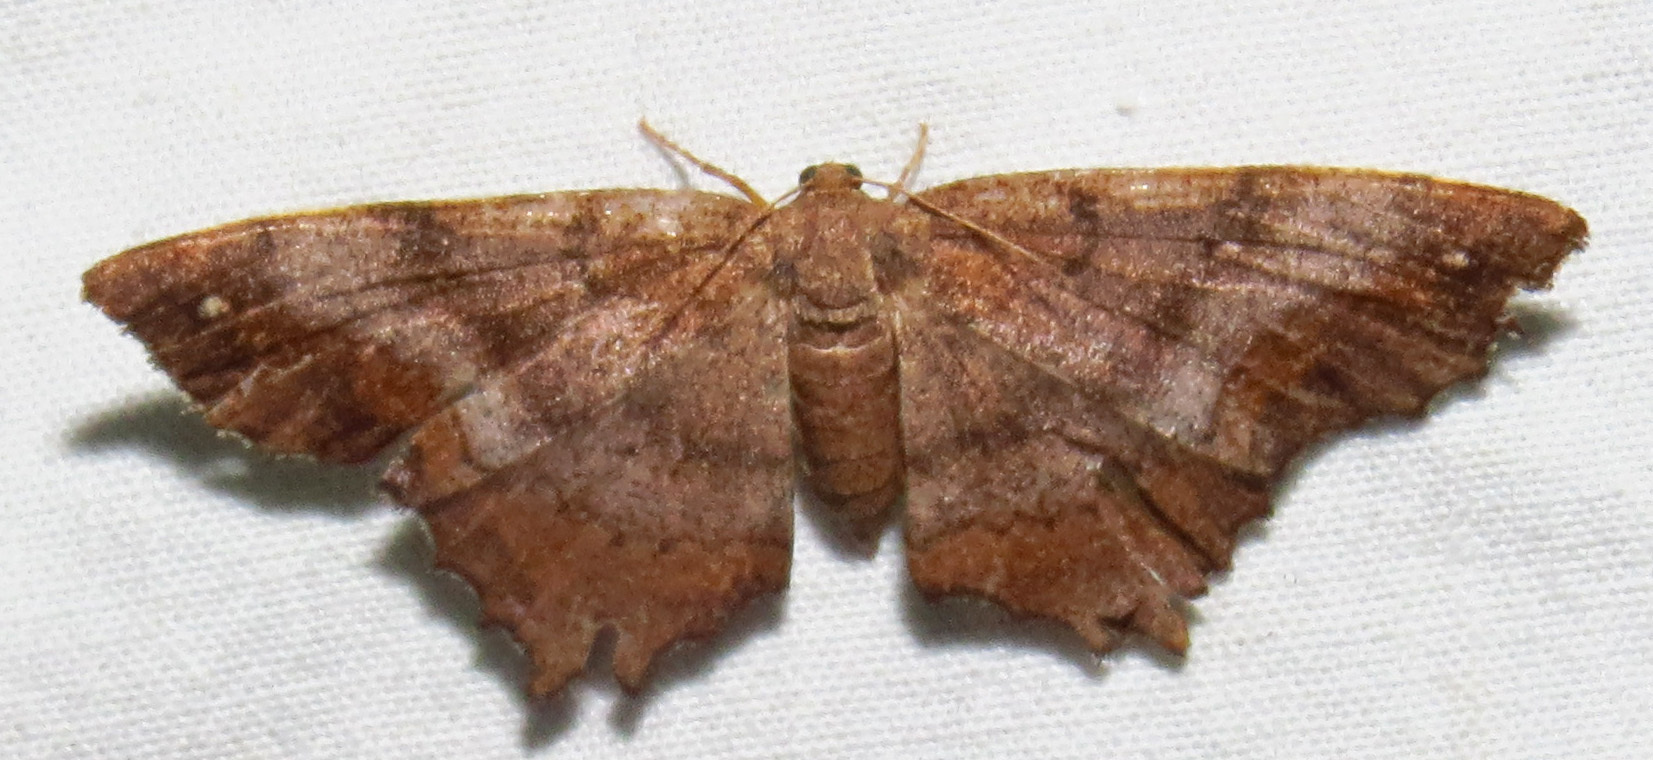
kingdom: Animalia
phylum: Arthropoda
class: Insecta
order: Lepidoptera
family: Geometridae
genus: Hypagyrtis
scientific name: Hypagyrtis unipunctata
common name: One-spotted variant
